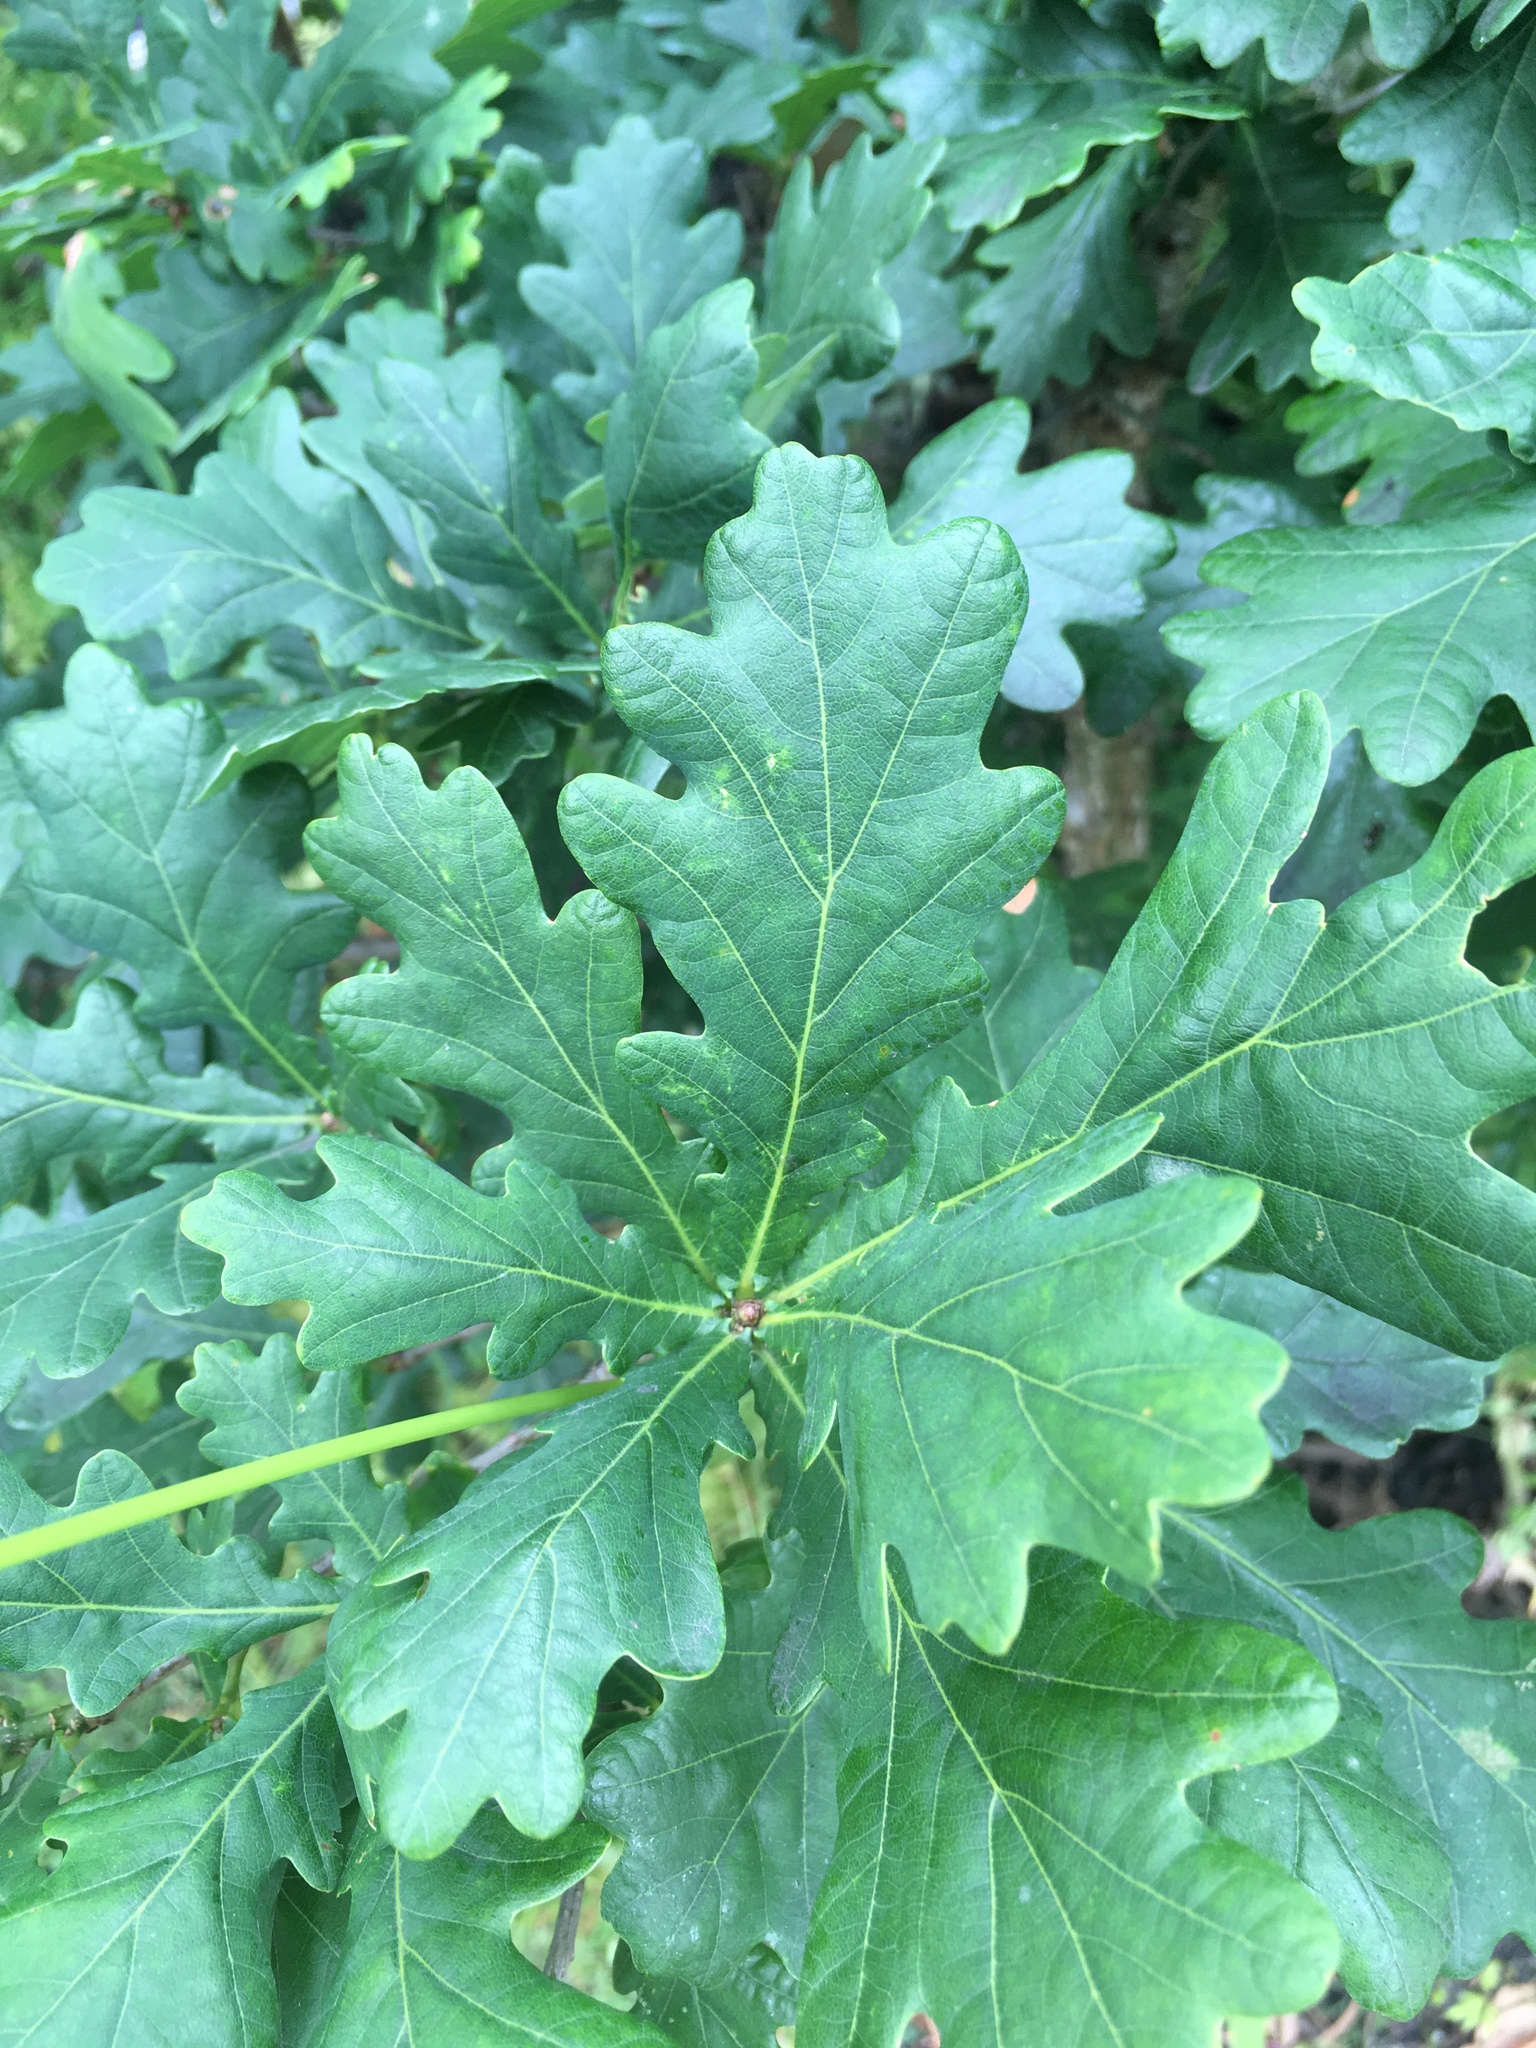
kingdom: Plantae
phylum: Tracheophyta
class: Magnoliopsida
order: Fagales
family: Fagaceae
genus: Quercus
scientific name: Quercus robur
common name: Pedunculate oak
